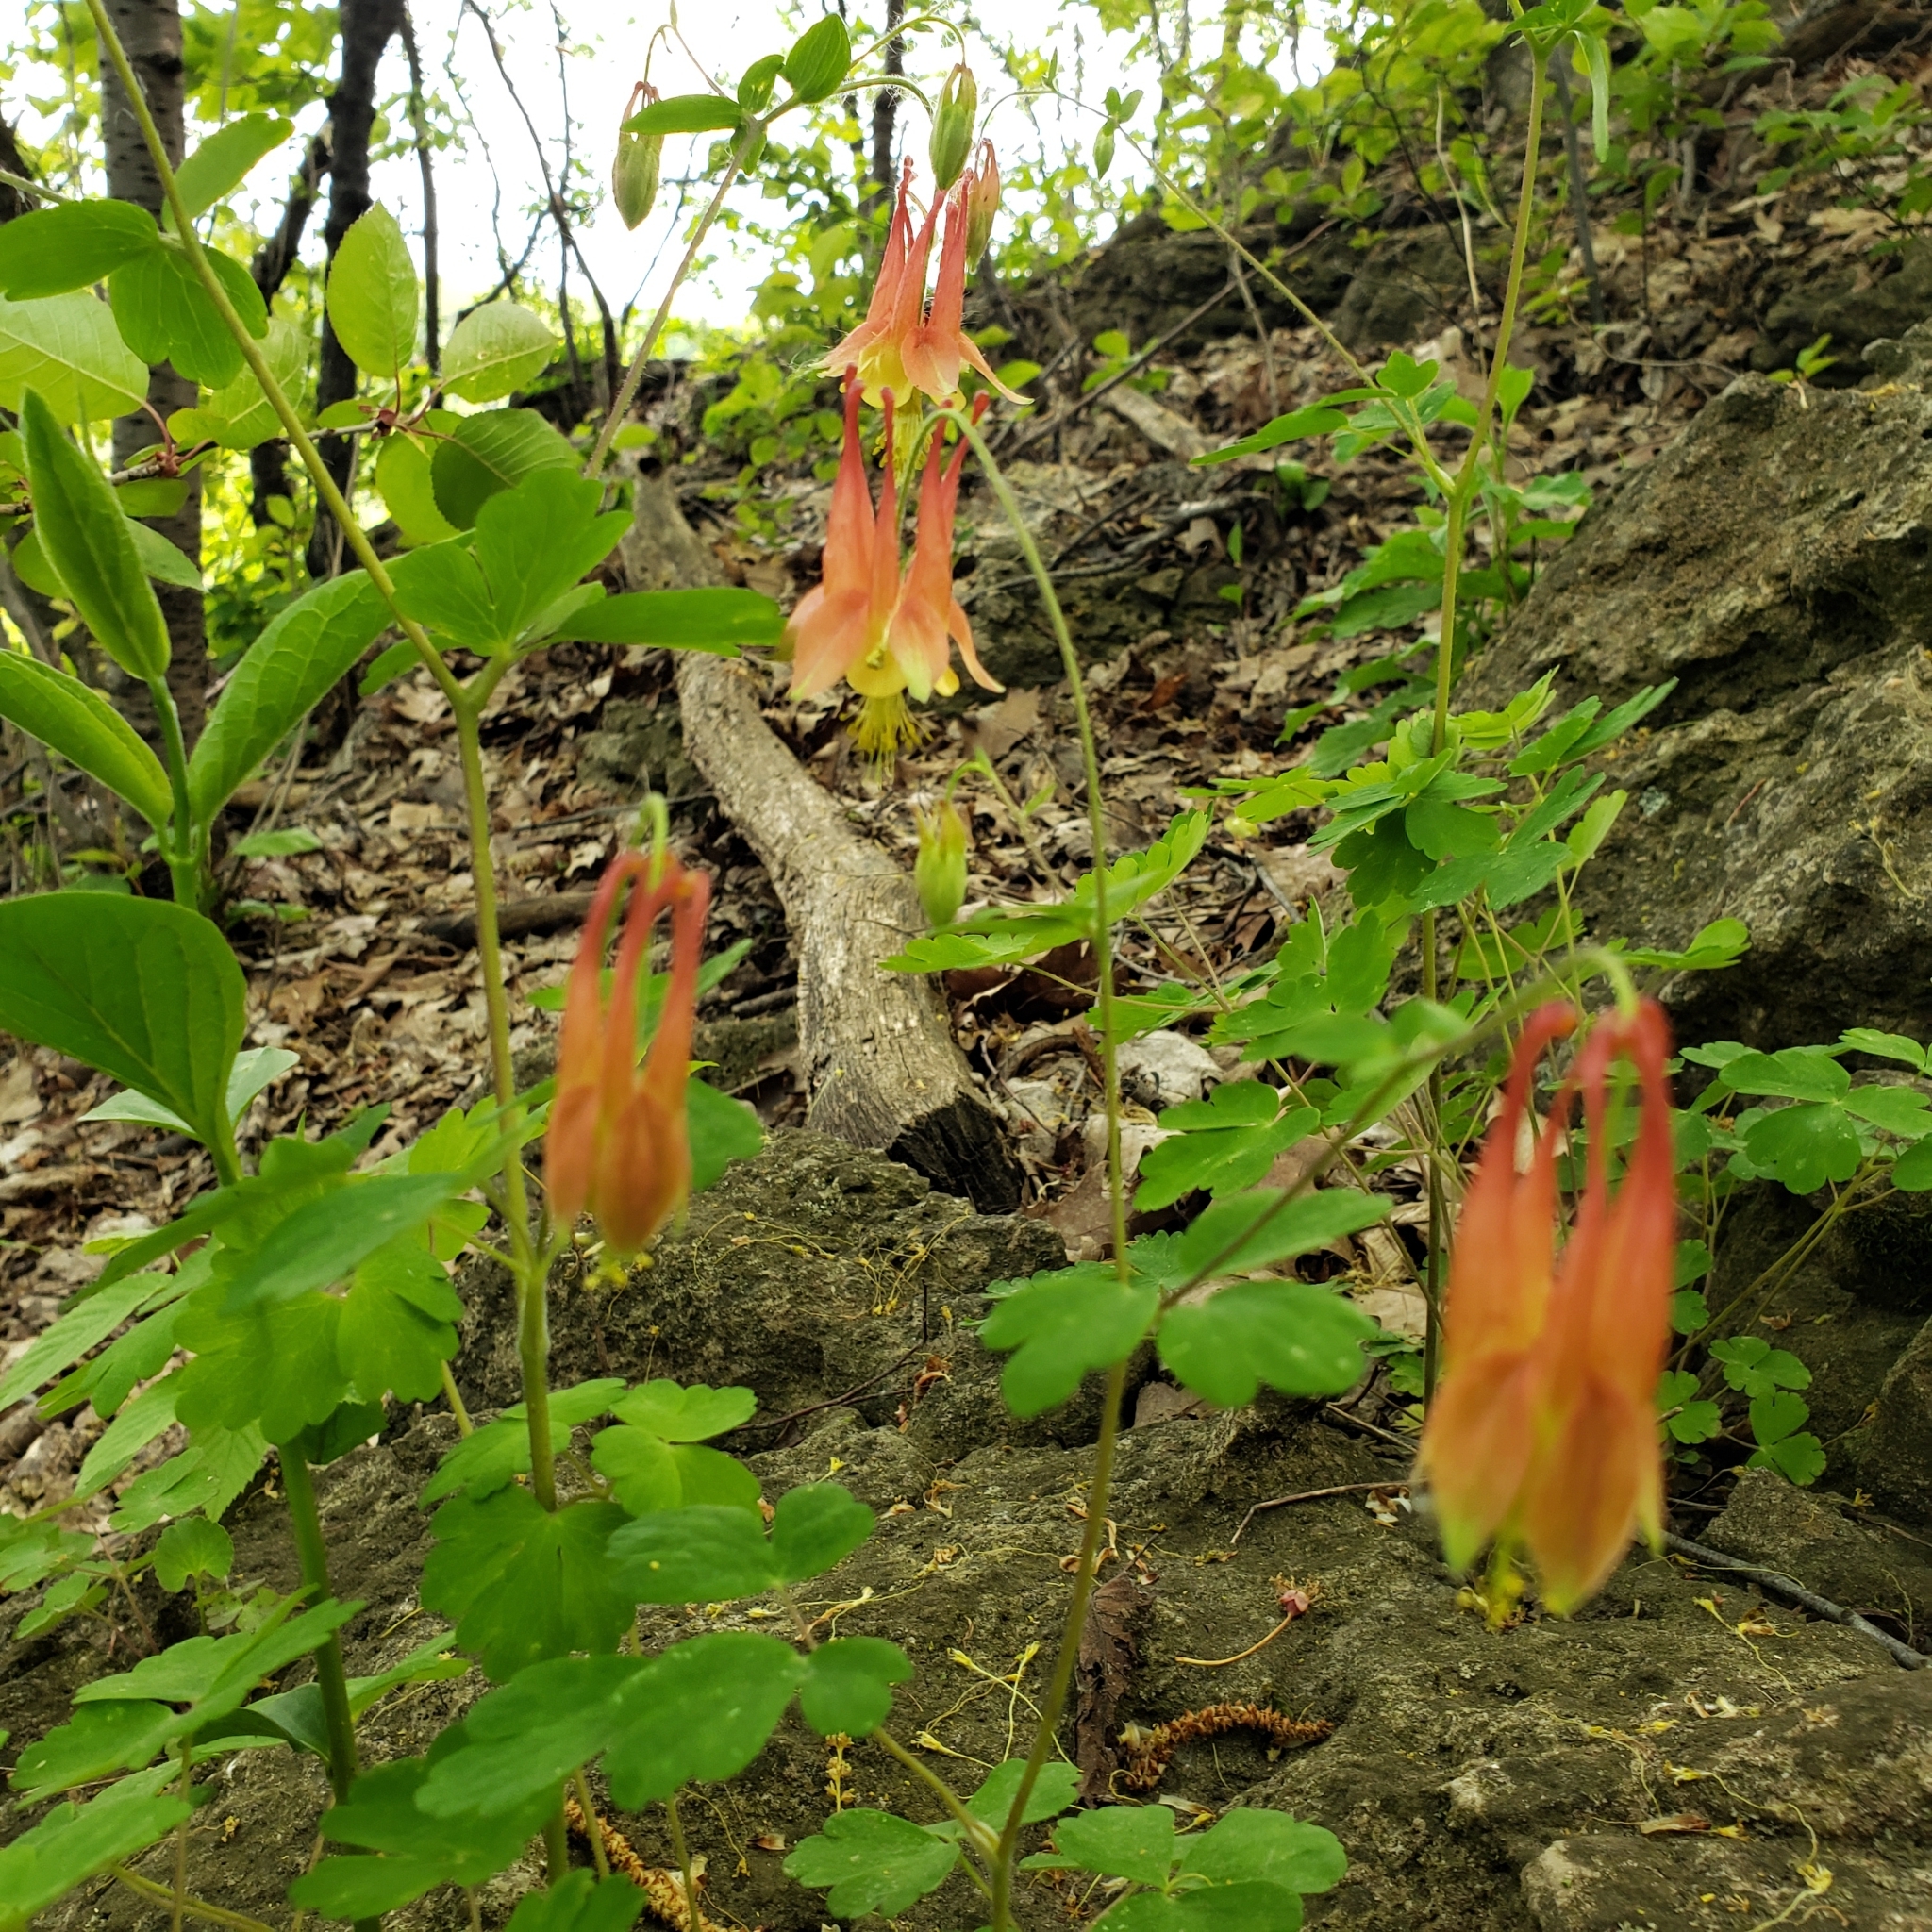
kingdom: Plantae
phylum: Tracheophyta
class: Magnoliopsida
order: Ranunculales
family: Ranunculaceae
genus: Aquilegia
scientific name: Aquilegia canadensis
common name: American columbine
